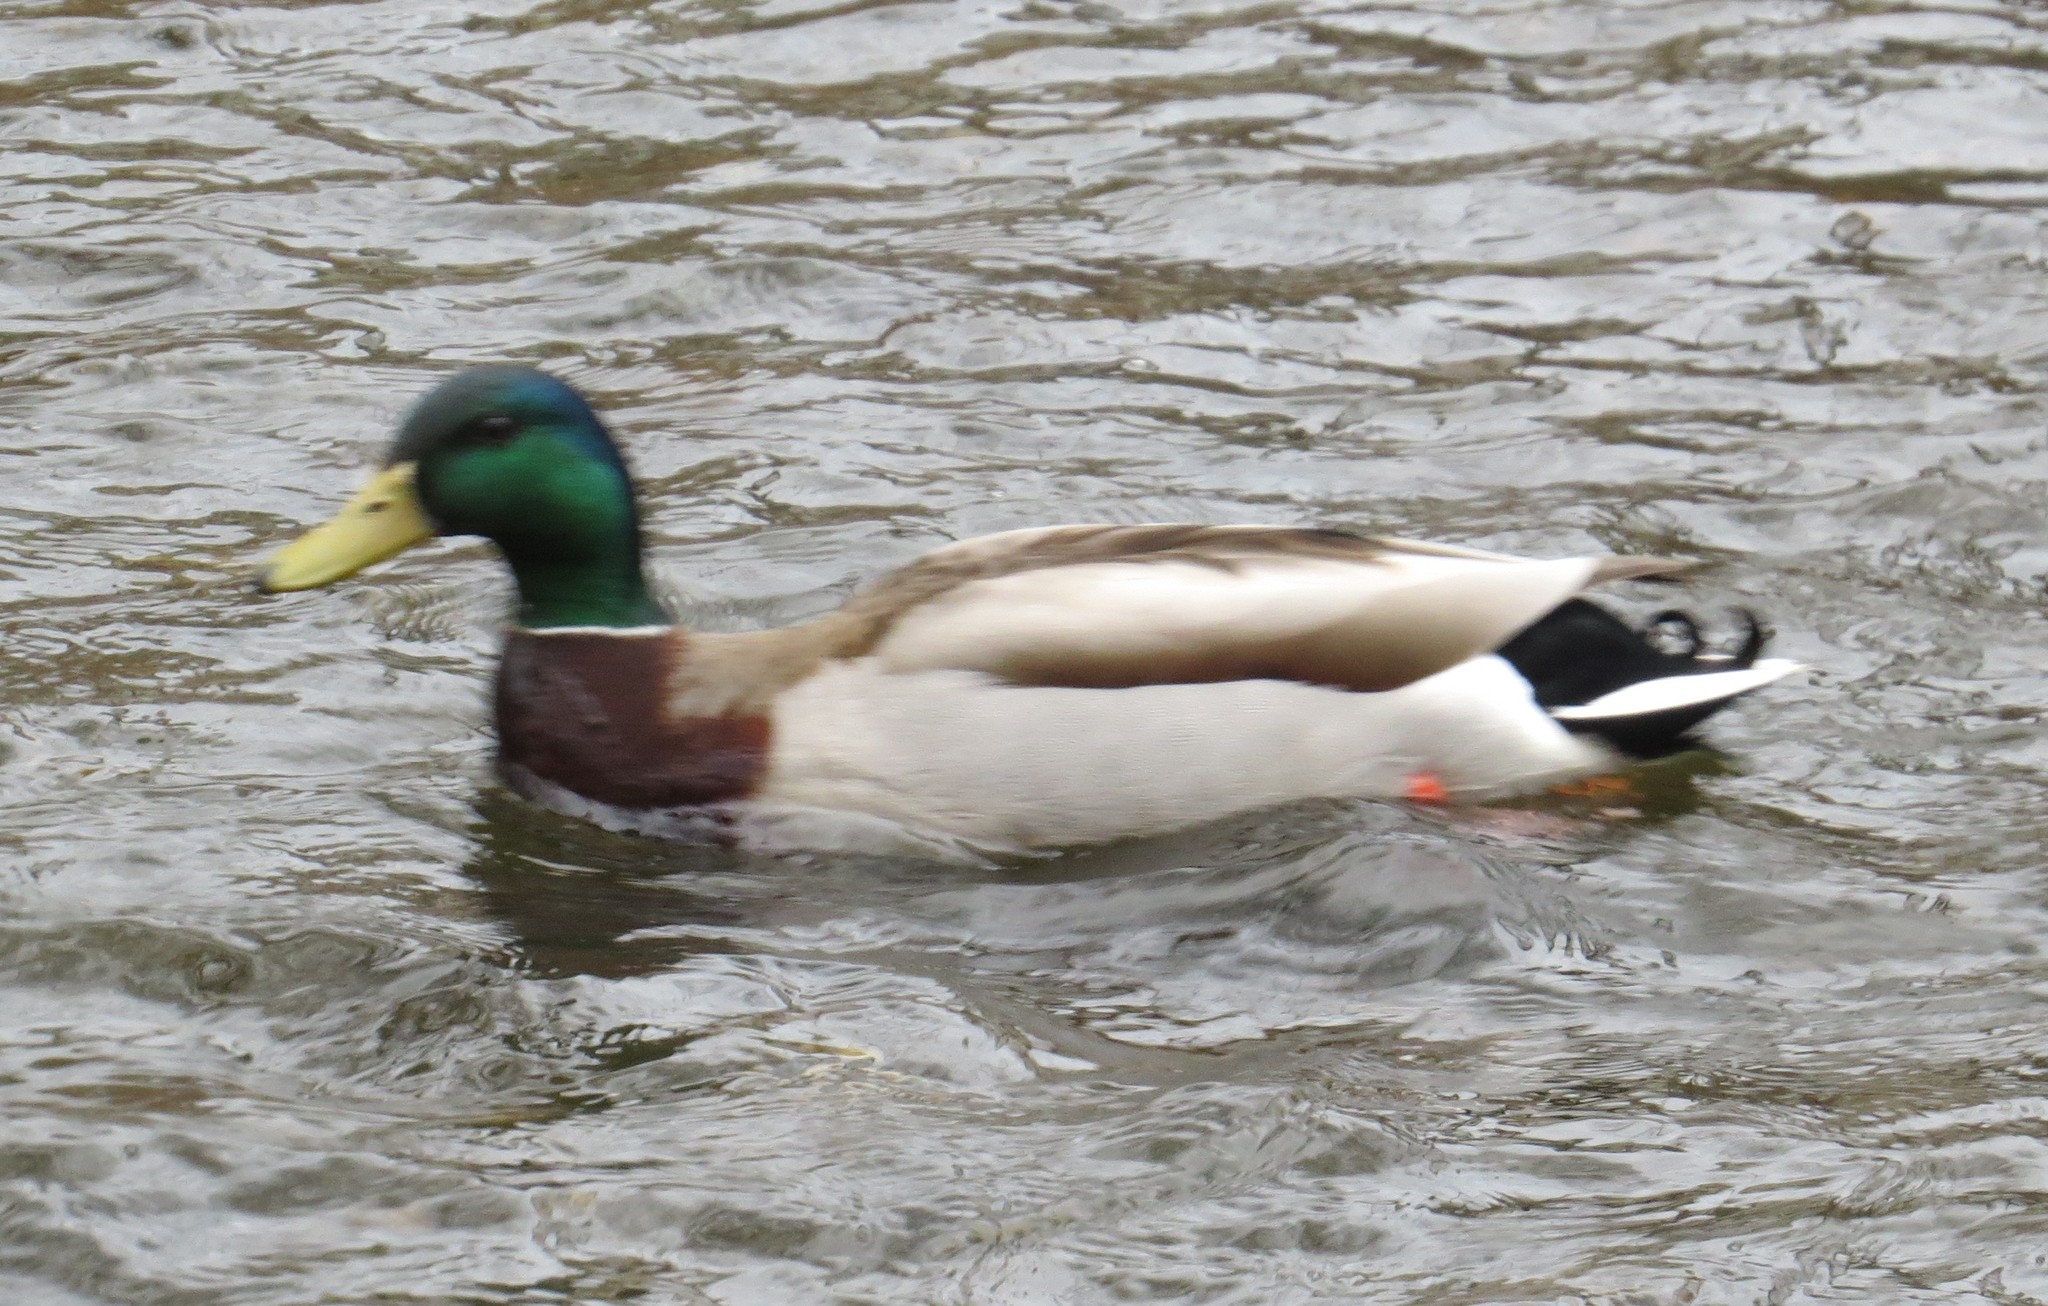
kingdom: Animalia
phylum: Chordata
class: Aves
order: Anseriformes
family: Anatidae
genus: Anas
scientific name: Anas platyrhynchos
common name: Mallard
